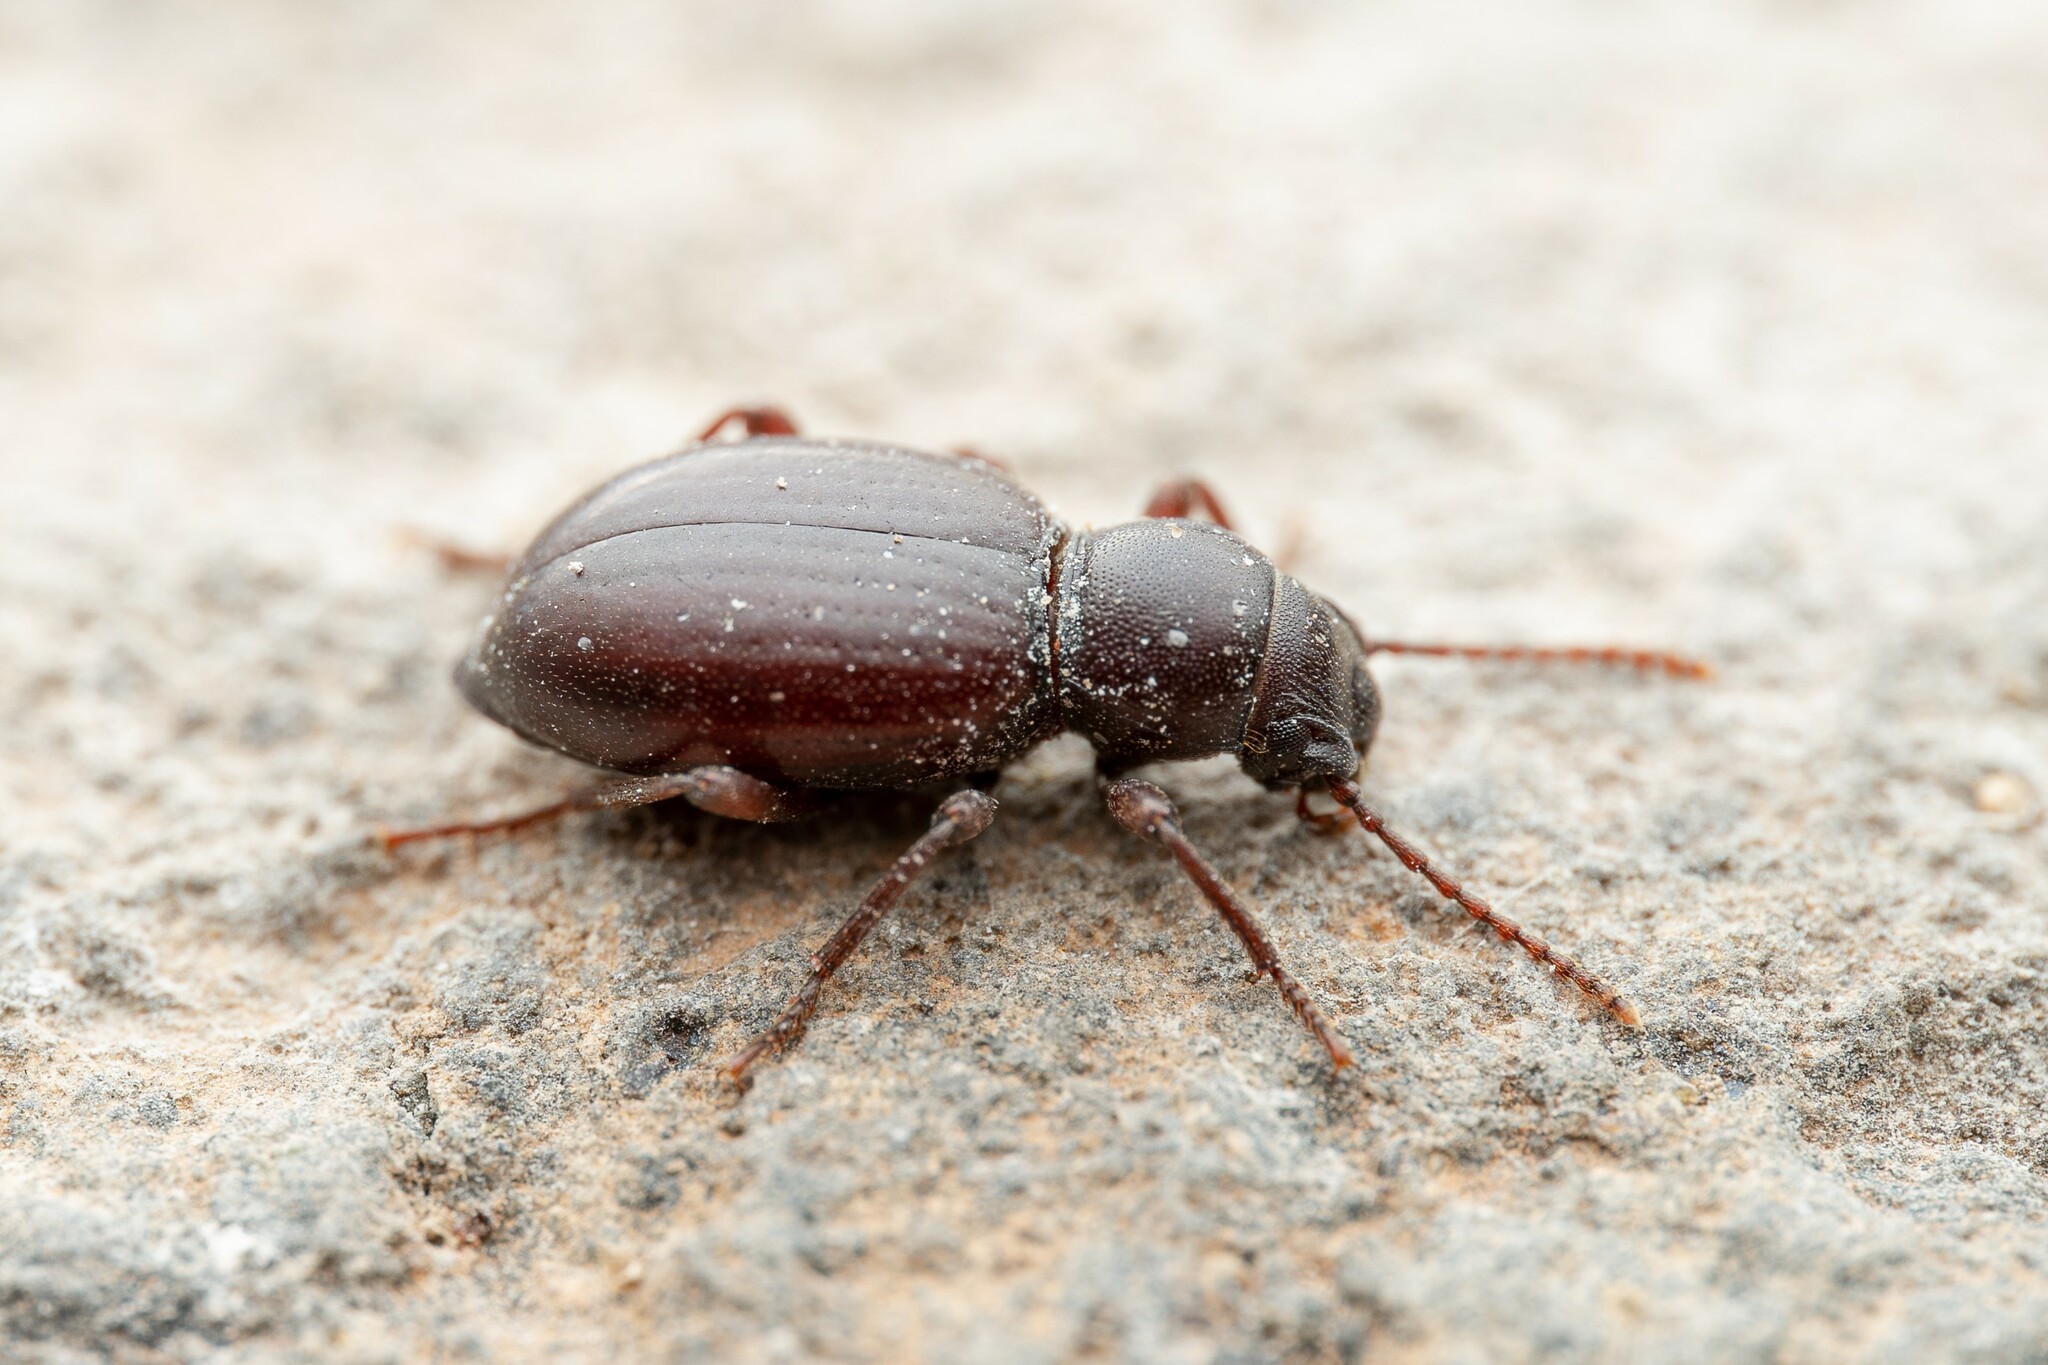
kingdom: Animalia
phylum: Arthropoda
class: Insecta
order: Coleoptera
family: Tenebrionidae
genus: Triorophus
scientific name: Triorophus laevis
